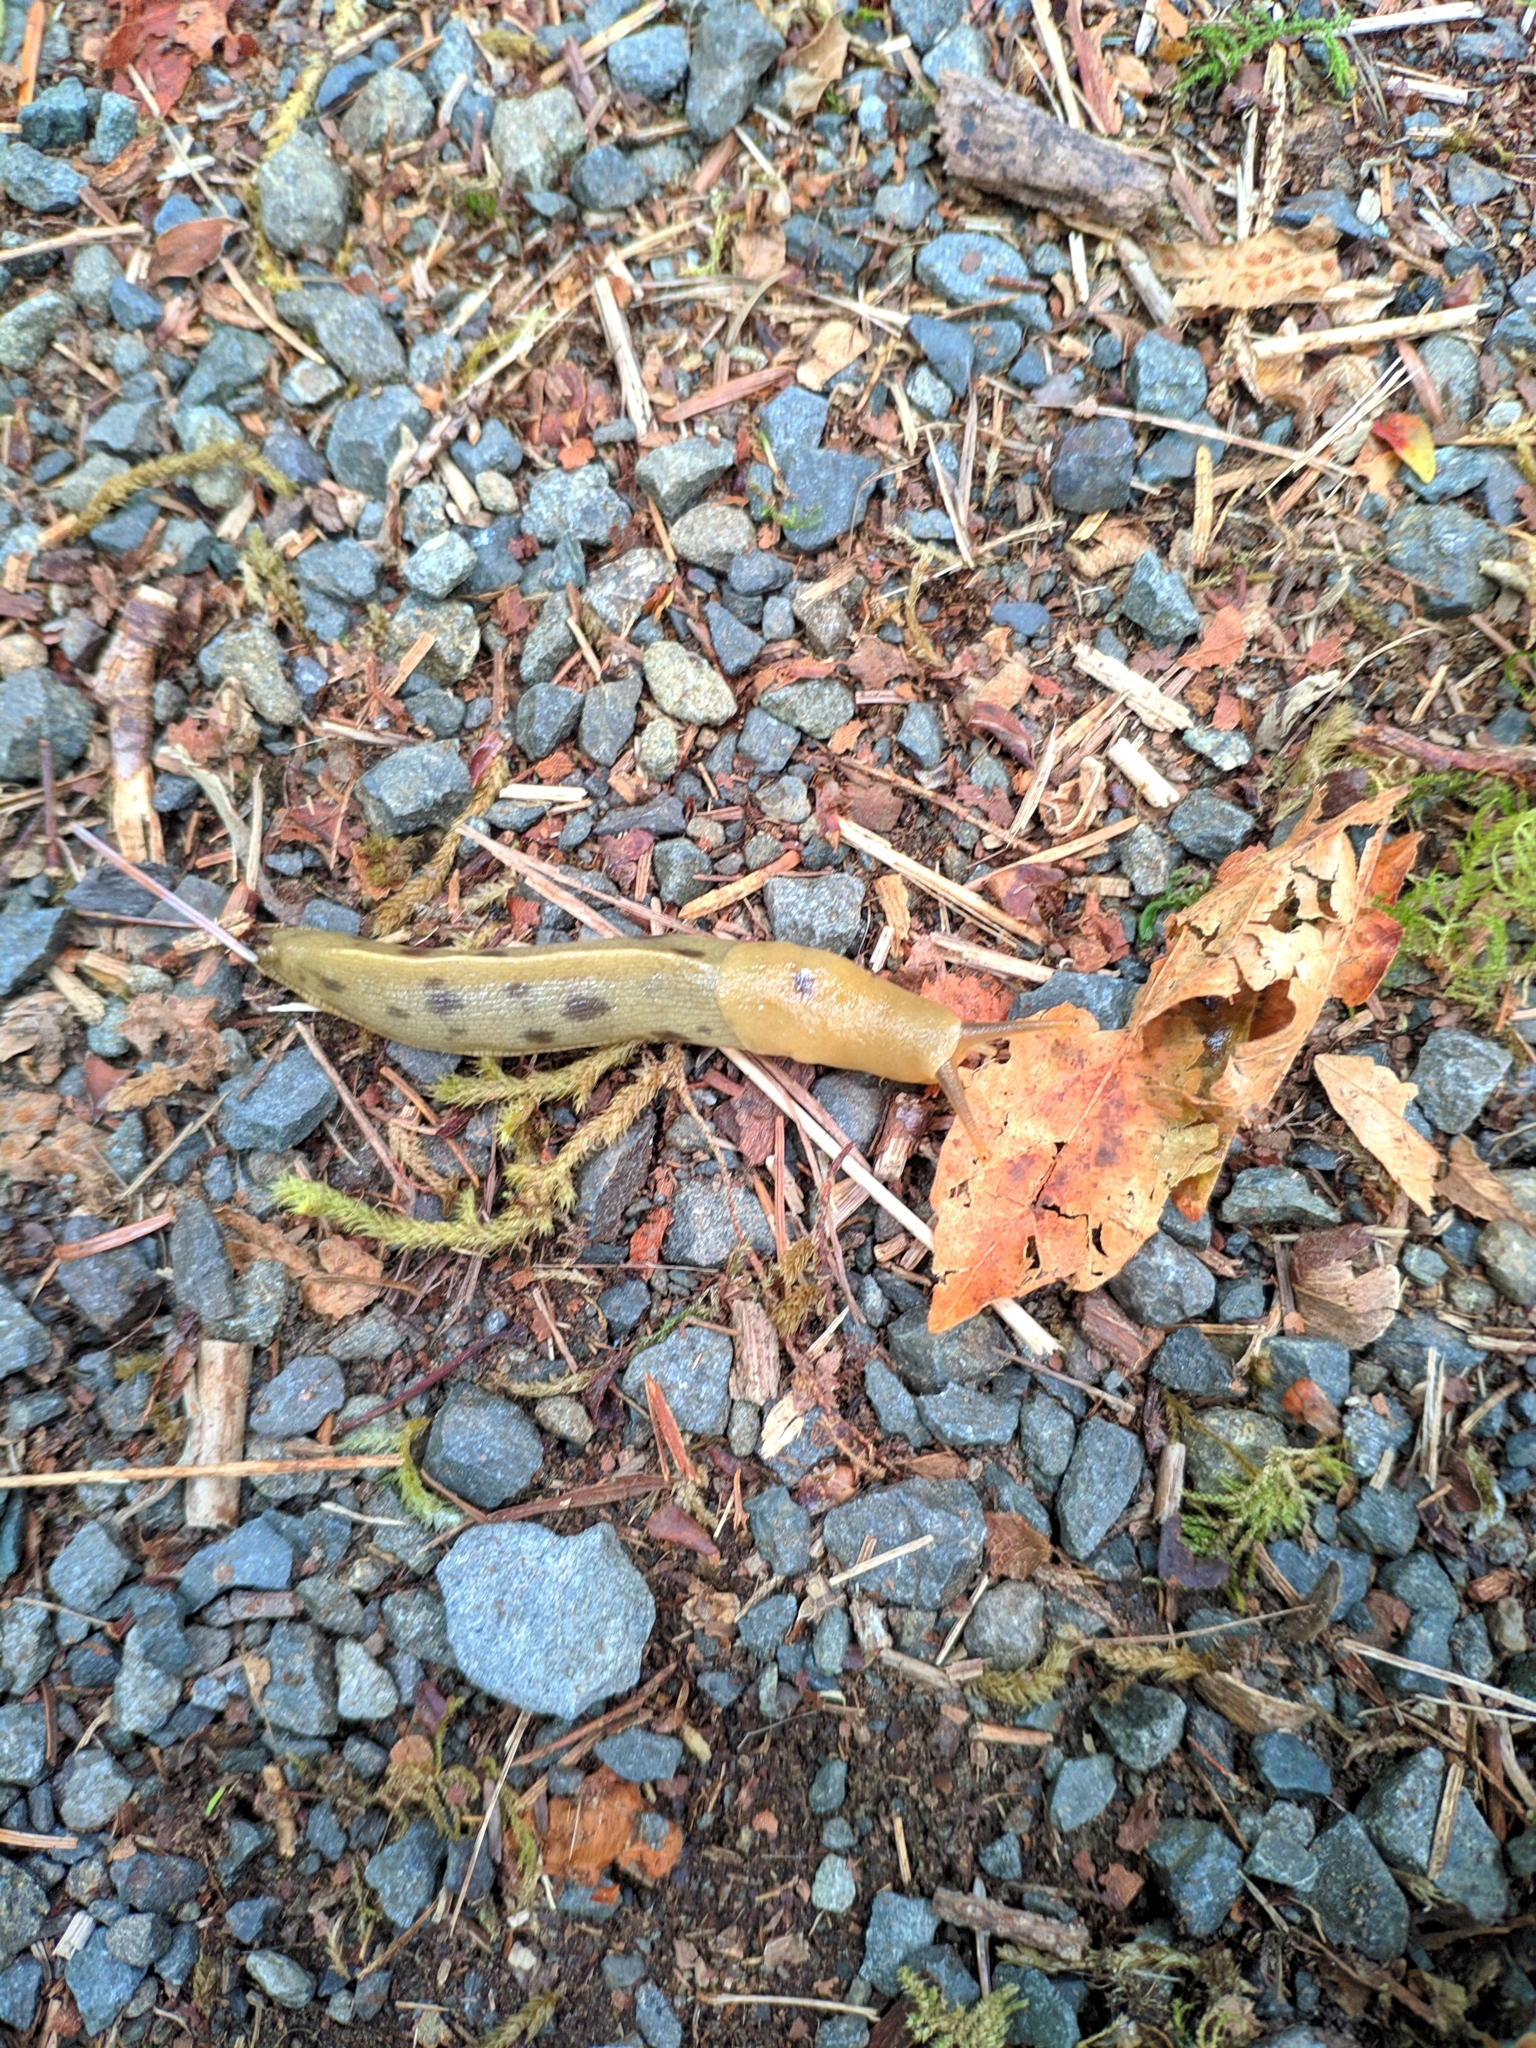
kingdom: Animalia
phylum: Mollusca
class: Gastropoda
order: Stylommatophora
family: Ariolimacidae
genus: Ariolimax
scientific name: Ariolimax columbianus
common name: Pacific banana slug
